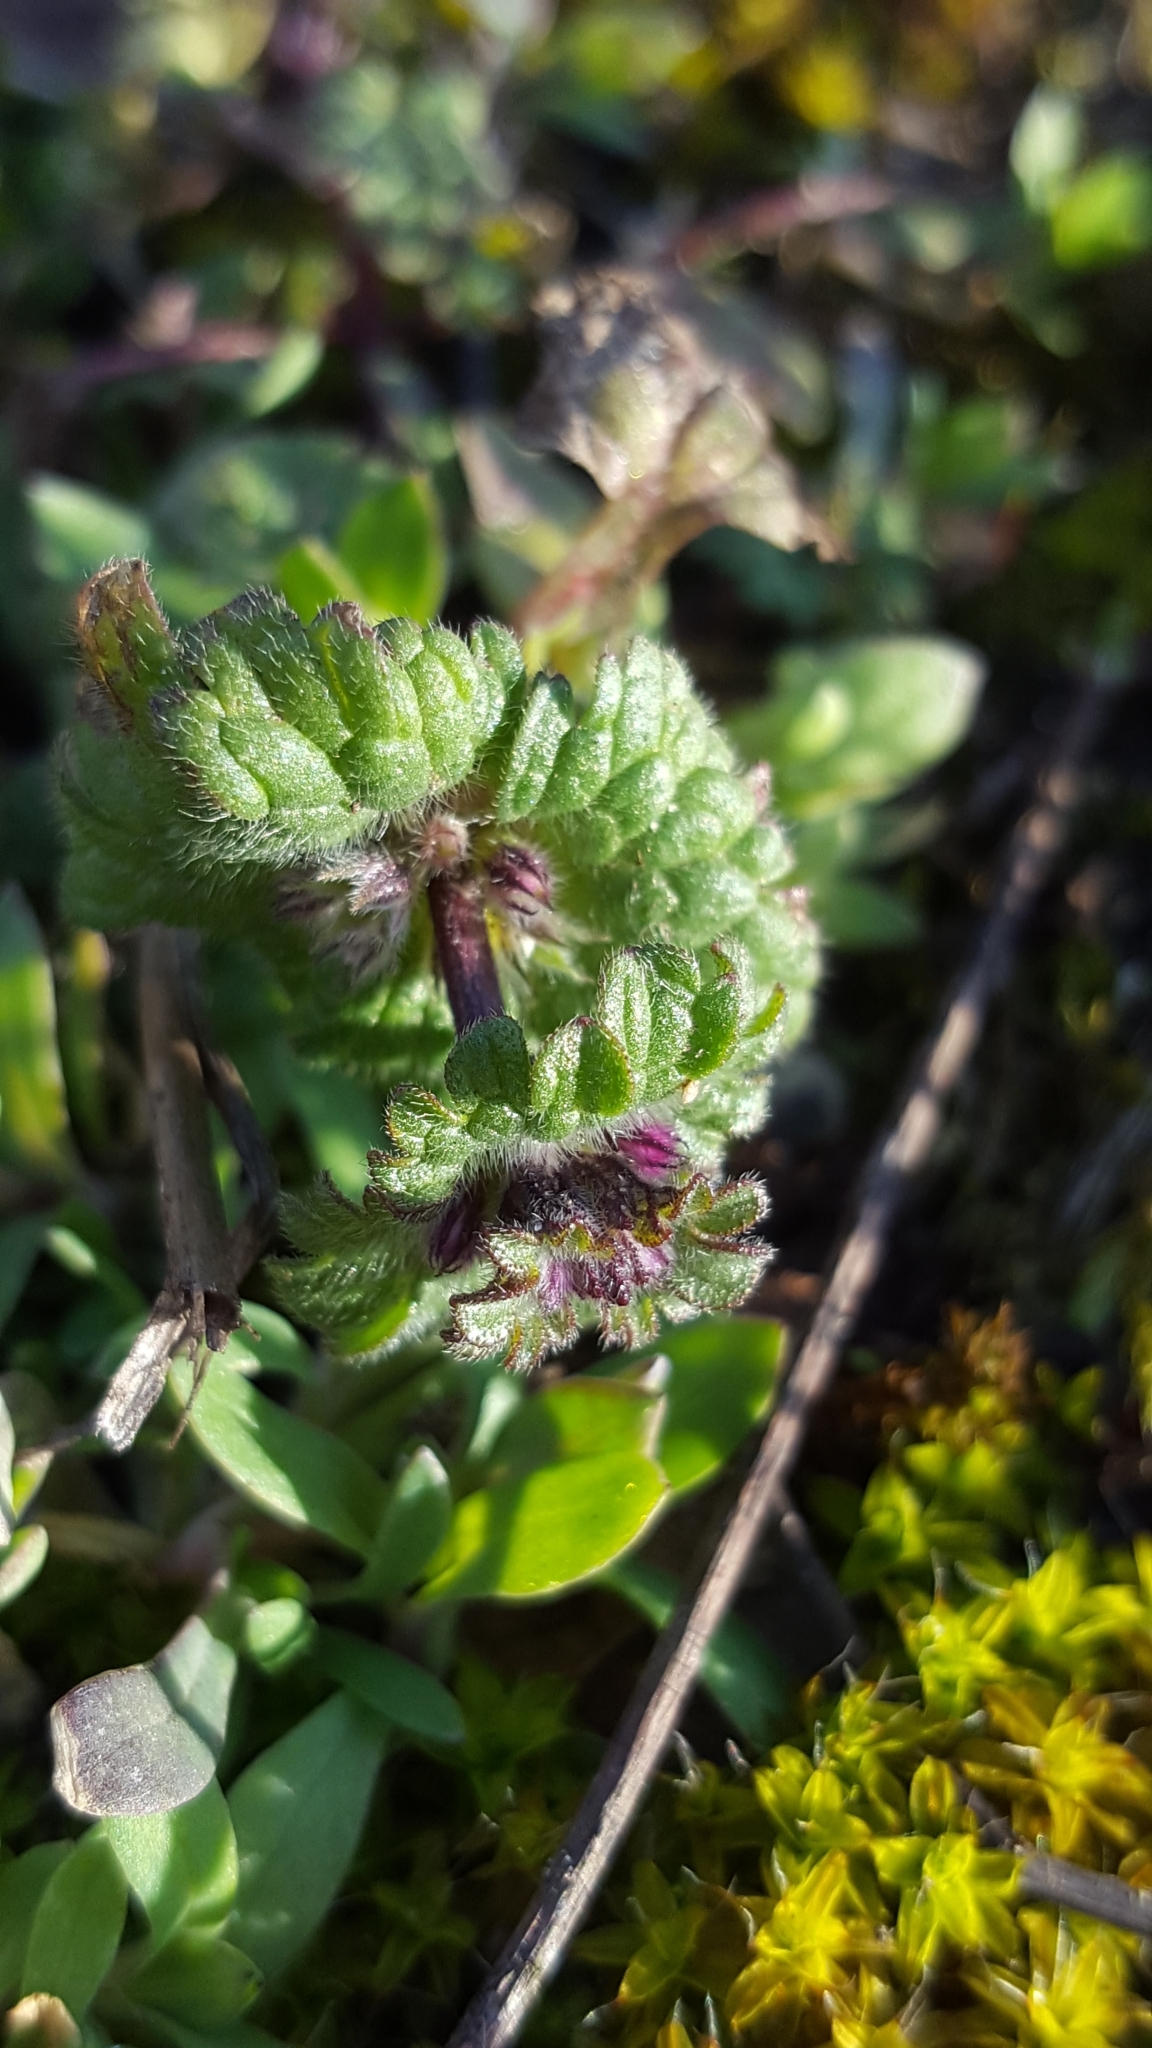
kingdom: Plantae
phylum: Tracheophyta
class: Magnoliopsida
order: Lamiales
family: Lamiaceae
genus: Lamium
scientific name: Lamium amplexicaule
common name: Henbit dead-nettle
